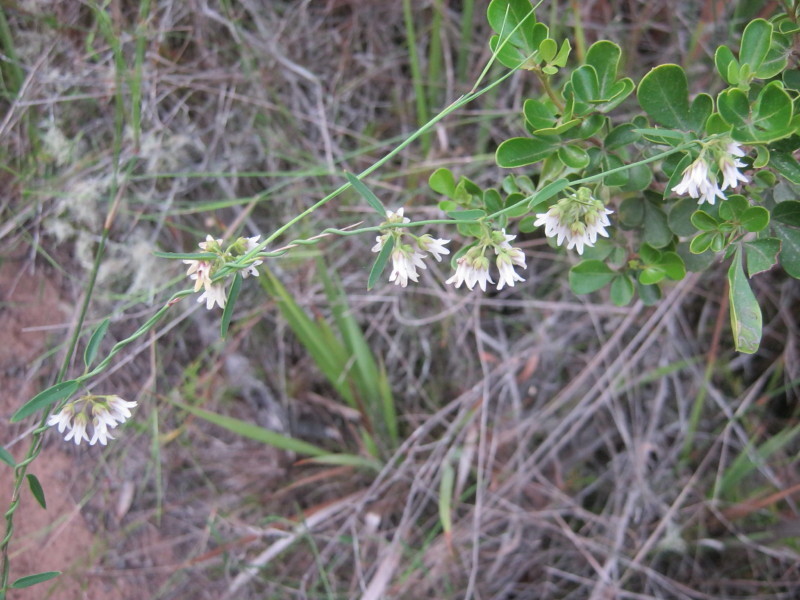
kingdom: Plantae
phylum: Tracheophyta
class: Magnoliopsida
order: Gentianales
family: Apocynaceae
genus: Astephanus
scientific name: Astephanus triflorus
